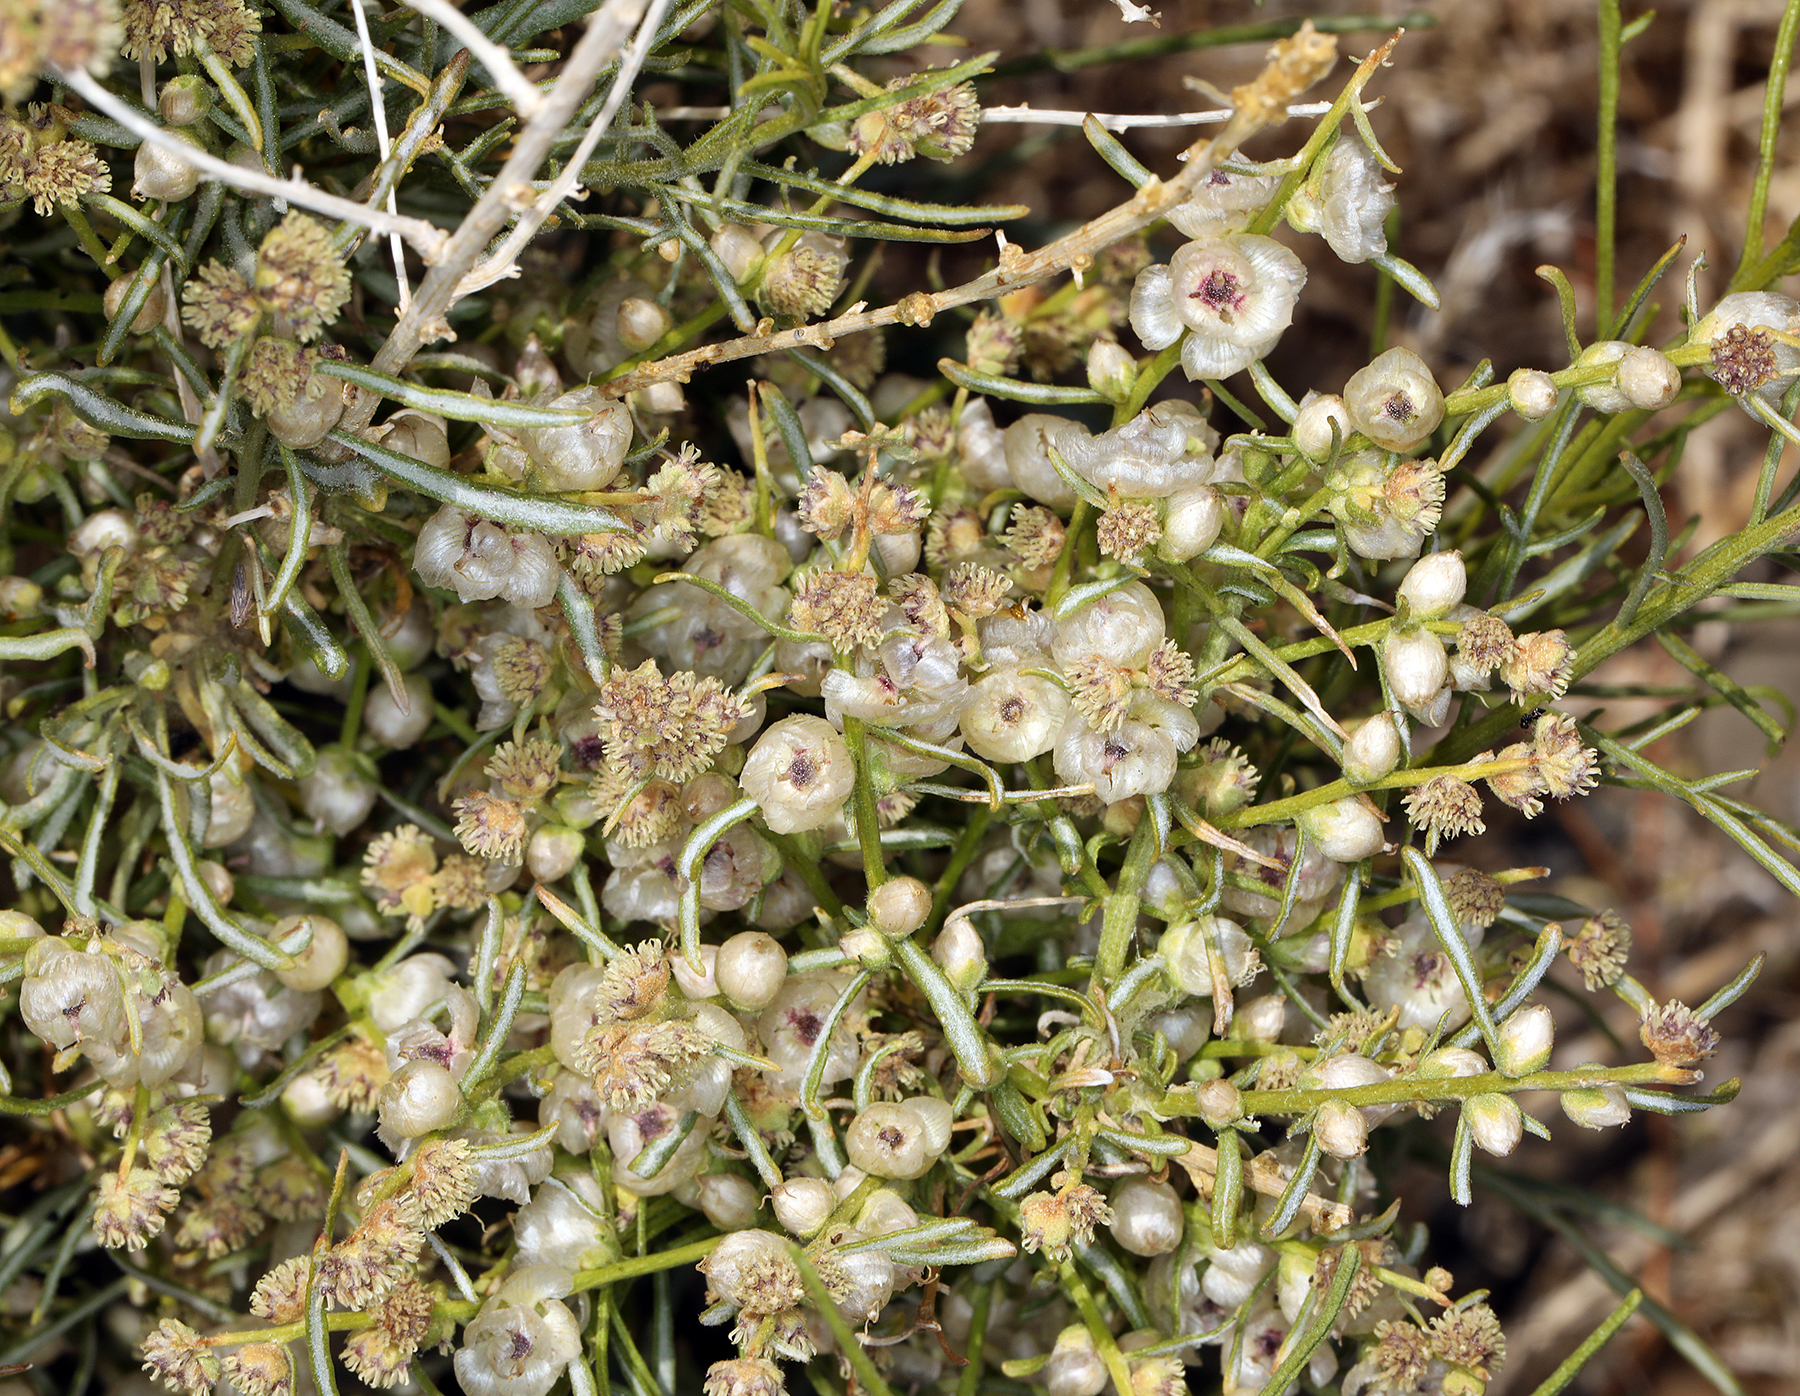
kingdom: Plantae
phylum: Tracheophyta
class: Magnoliopsida
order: Asterales
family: Asteraceae
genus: Ambrosia
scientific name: Ambrosia salsola
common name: Burrobrush
